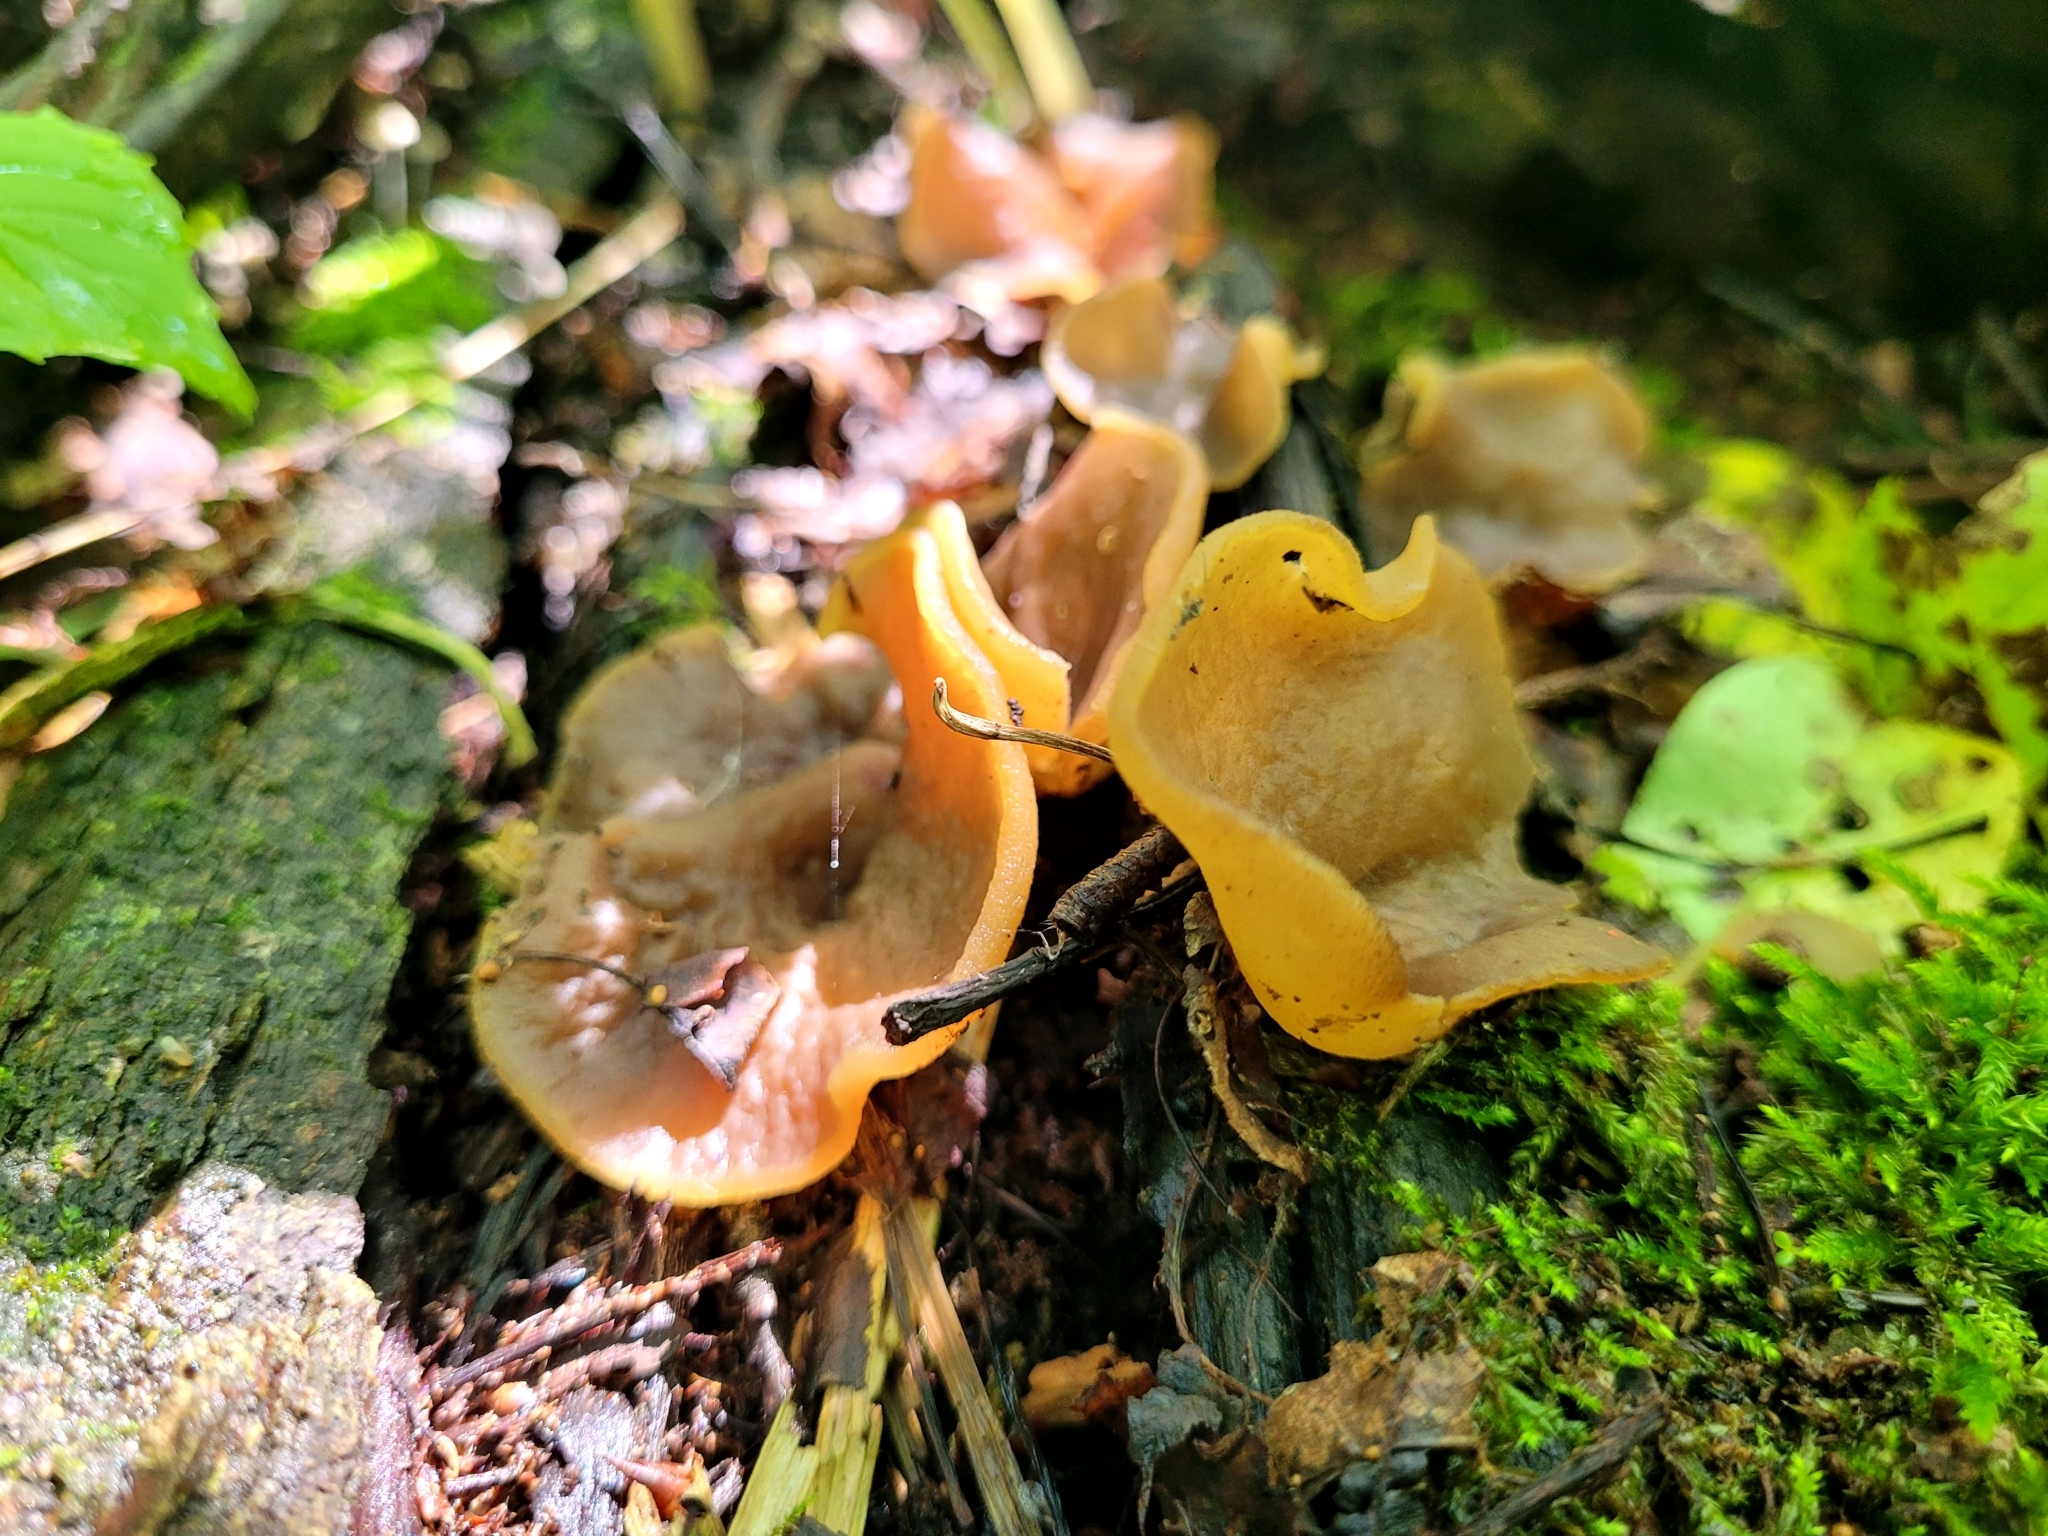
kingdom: Fungi
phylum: Ascomycota
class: Pezizomycetes
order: Pezizales
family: Pezizaceae
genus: Paragalactinia
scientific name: Paragalactinia succosa
